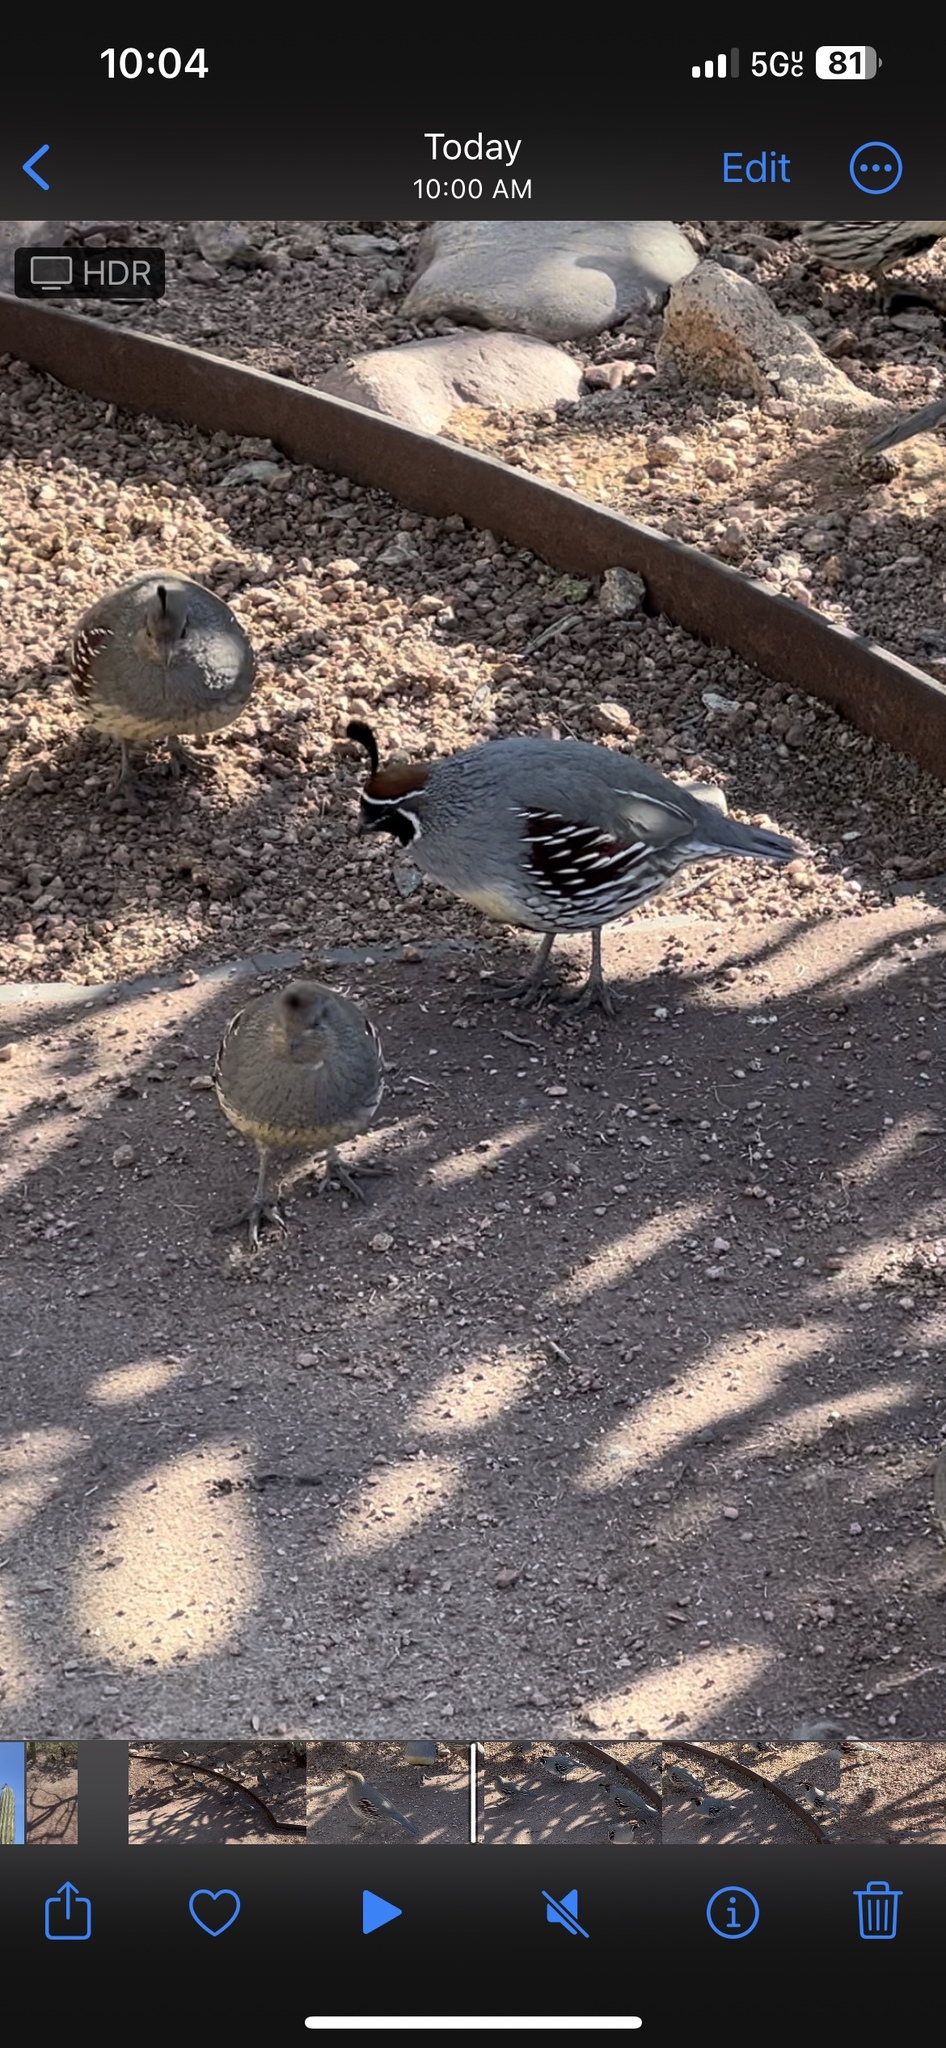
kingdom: Animalia
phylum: Chordata
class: Aves
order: Galliformes
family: Odontophoridae
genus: Callipepla
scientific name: Callipepla gambelii
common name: Gambel's quail
